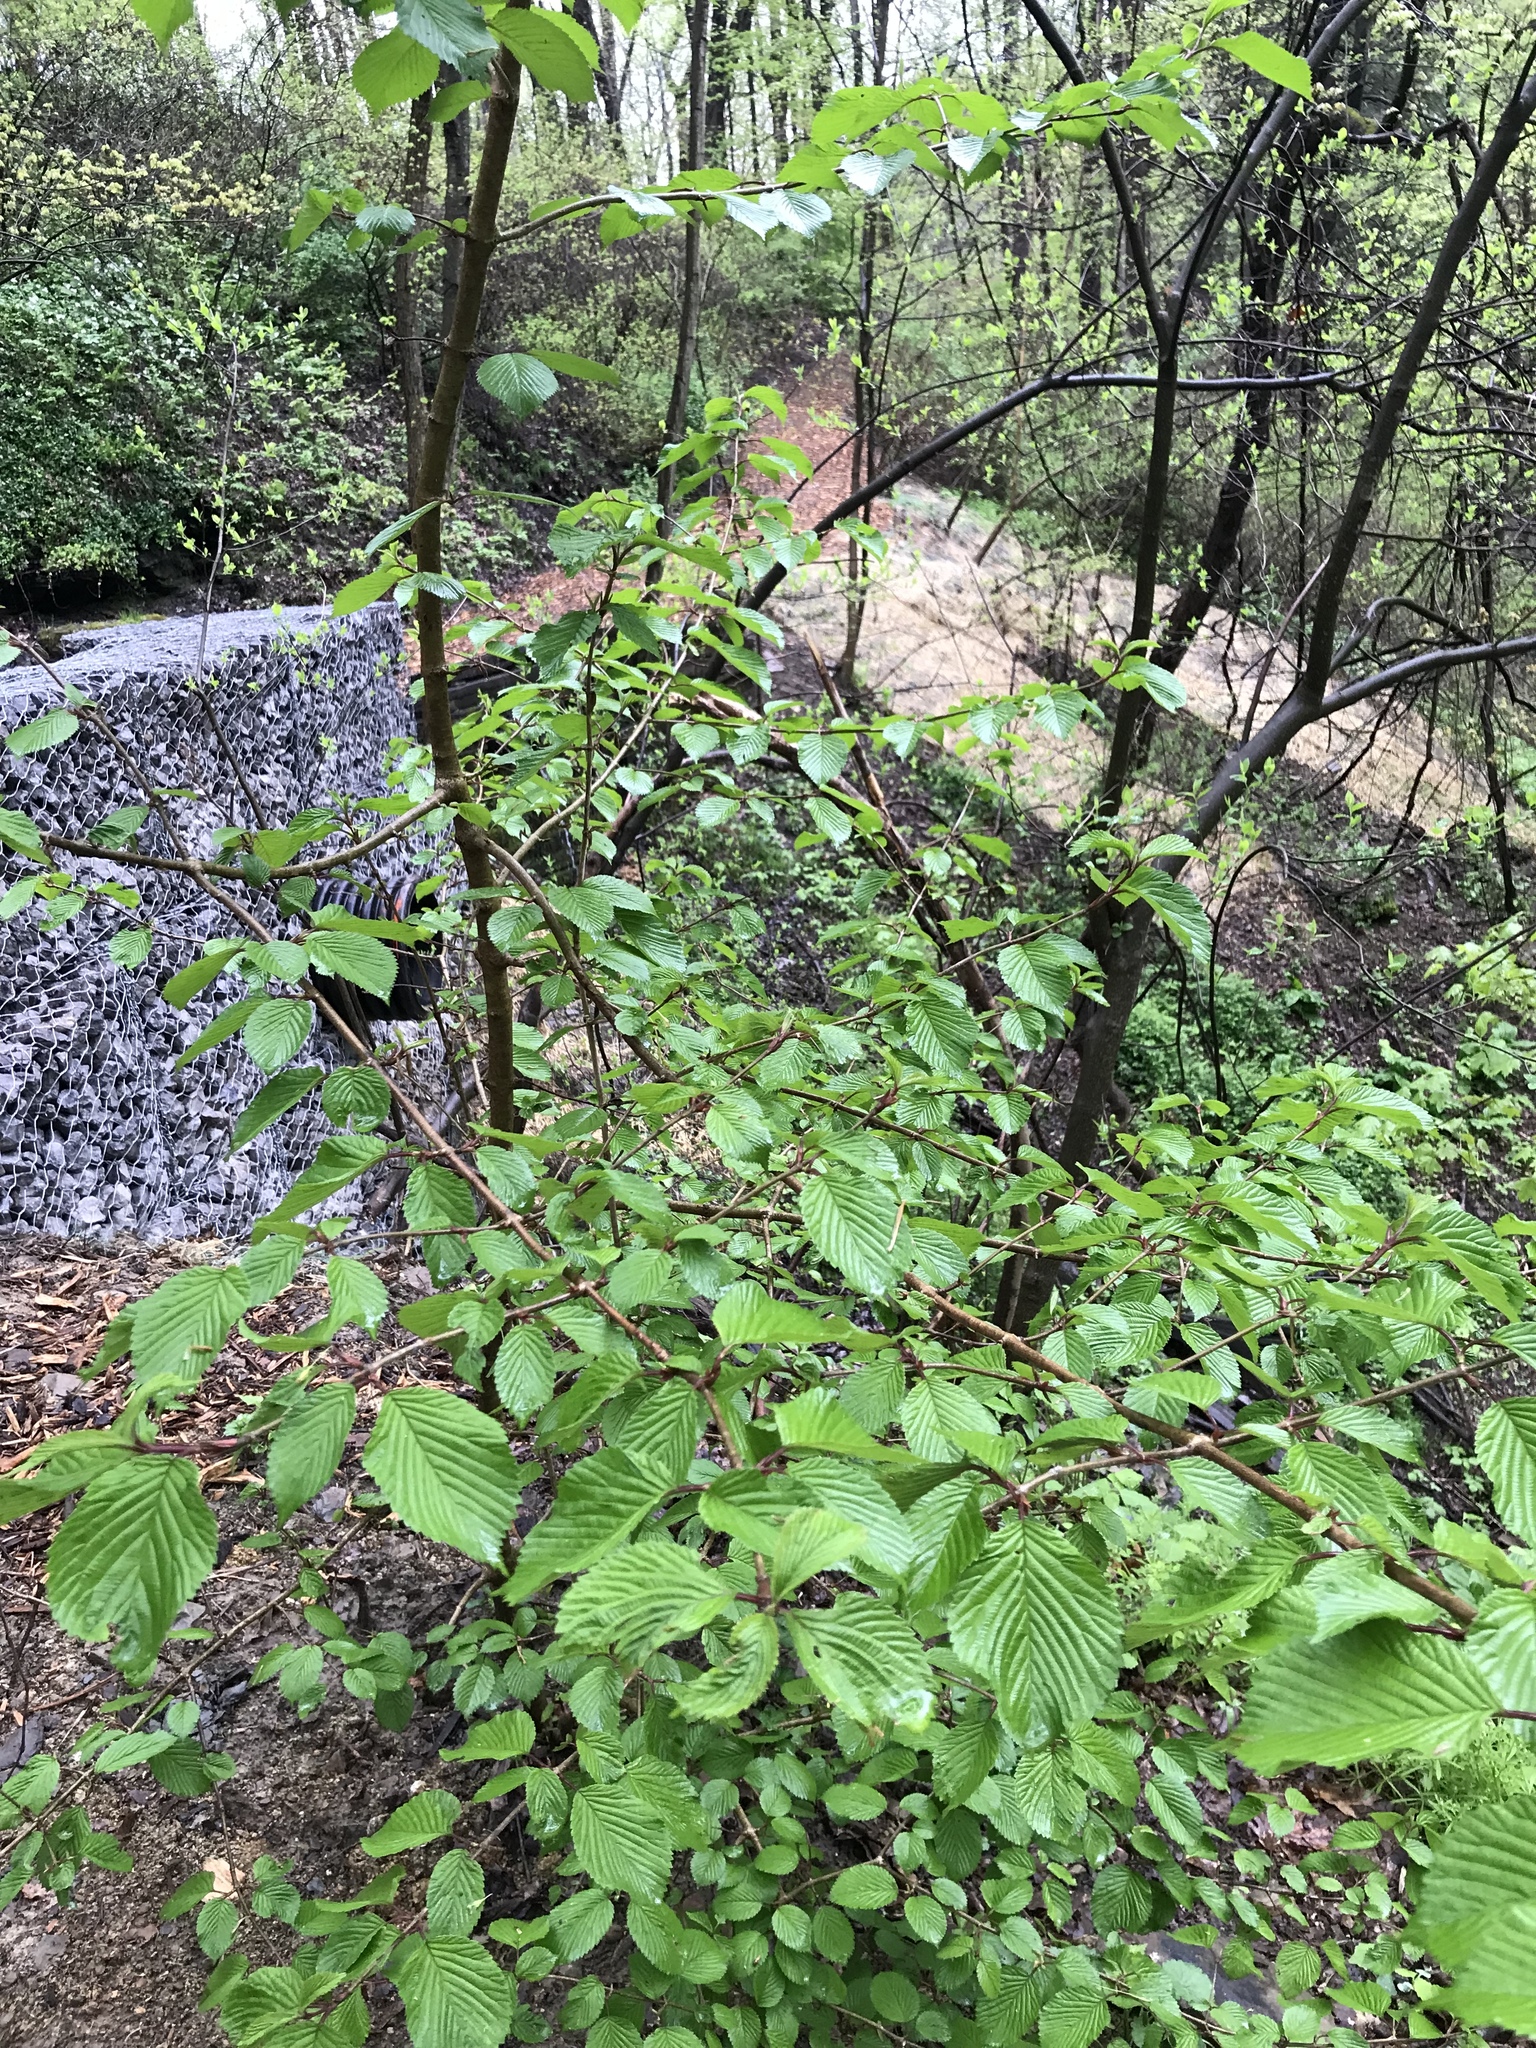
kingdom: Plantae
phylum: Tracheophyta
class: Magnoliopsida
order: Dipsacales
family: Viburnaceae
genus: Viburnum
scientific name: Viburnum plicatum
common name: Japanese snowball
